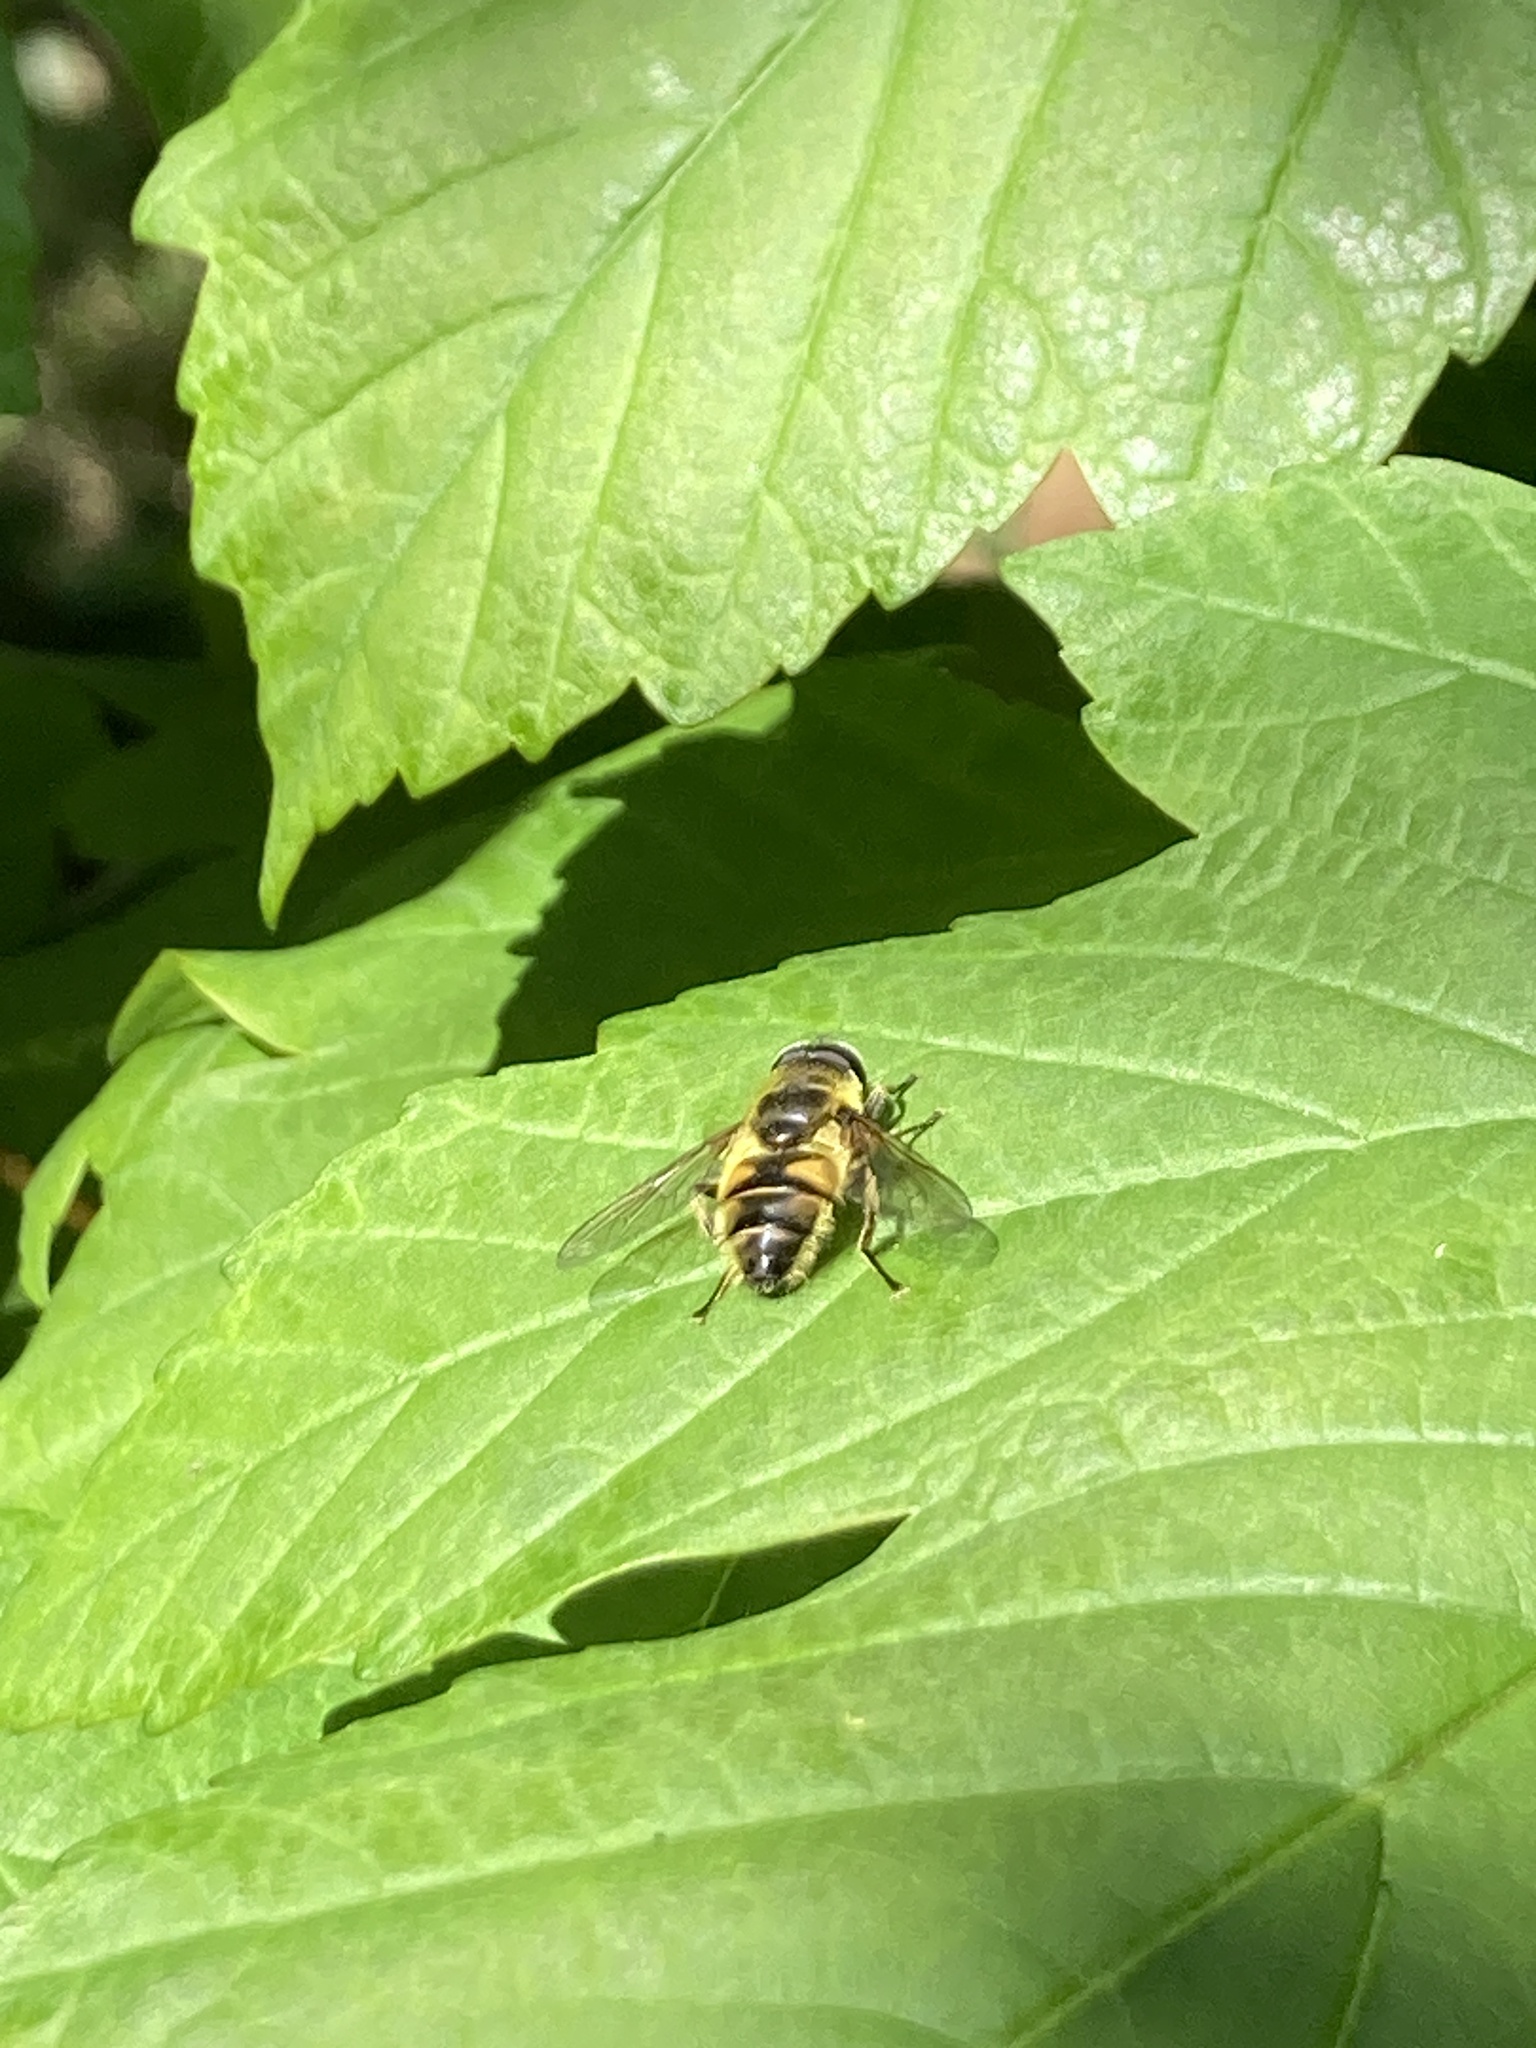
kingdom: Animalia
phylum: Arthropoda
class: Insecta
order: Diptera
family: Syrphidae
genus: Myathropa
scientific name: Myathropa florea
